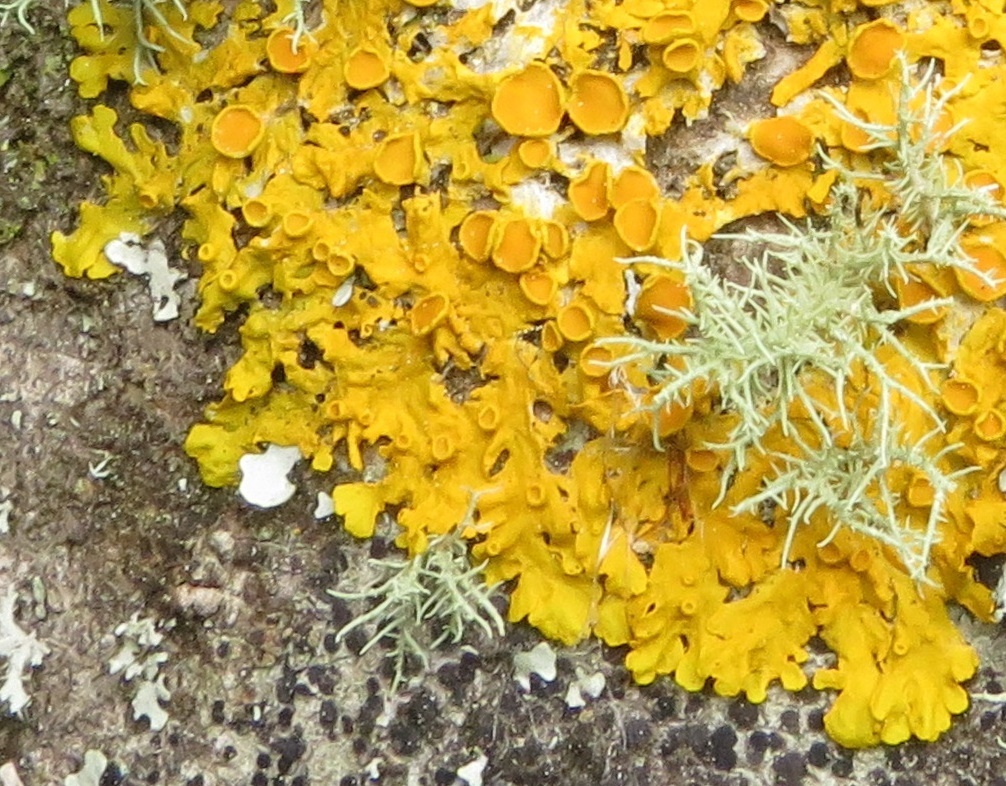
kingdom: Fungi
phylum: Ascomycota
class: Lecanoromycetes
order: Teloschistales
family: Teloschistaceae
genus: Xanthoria
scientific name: Xanthoria parietina
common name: Common orange lichen
